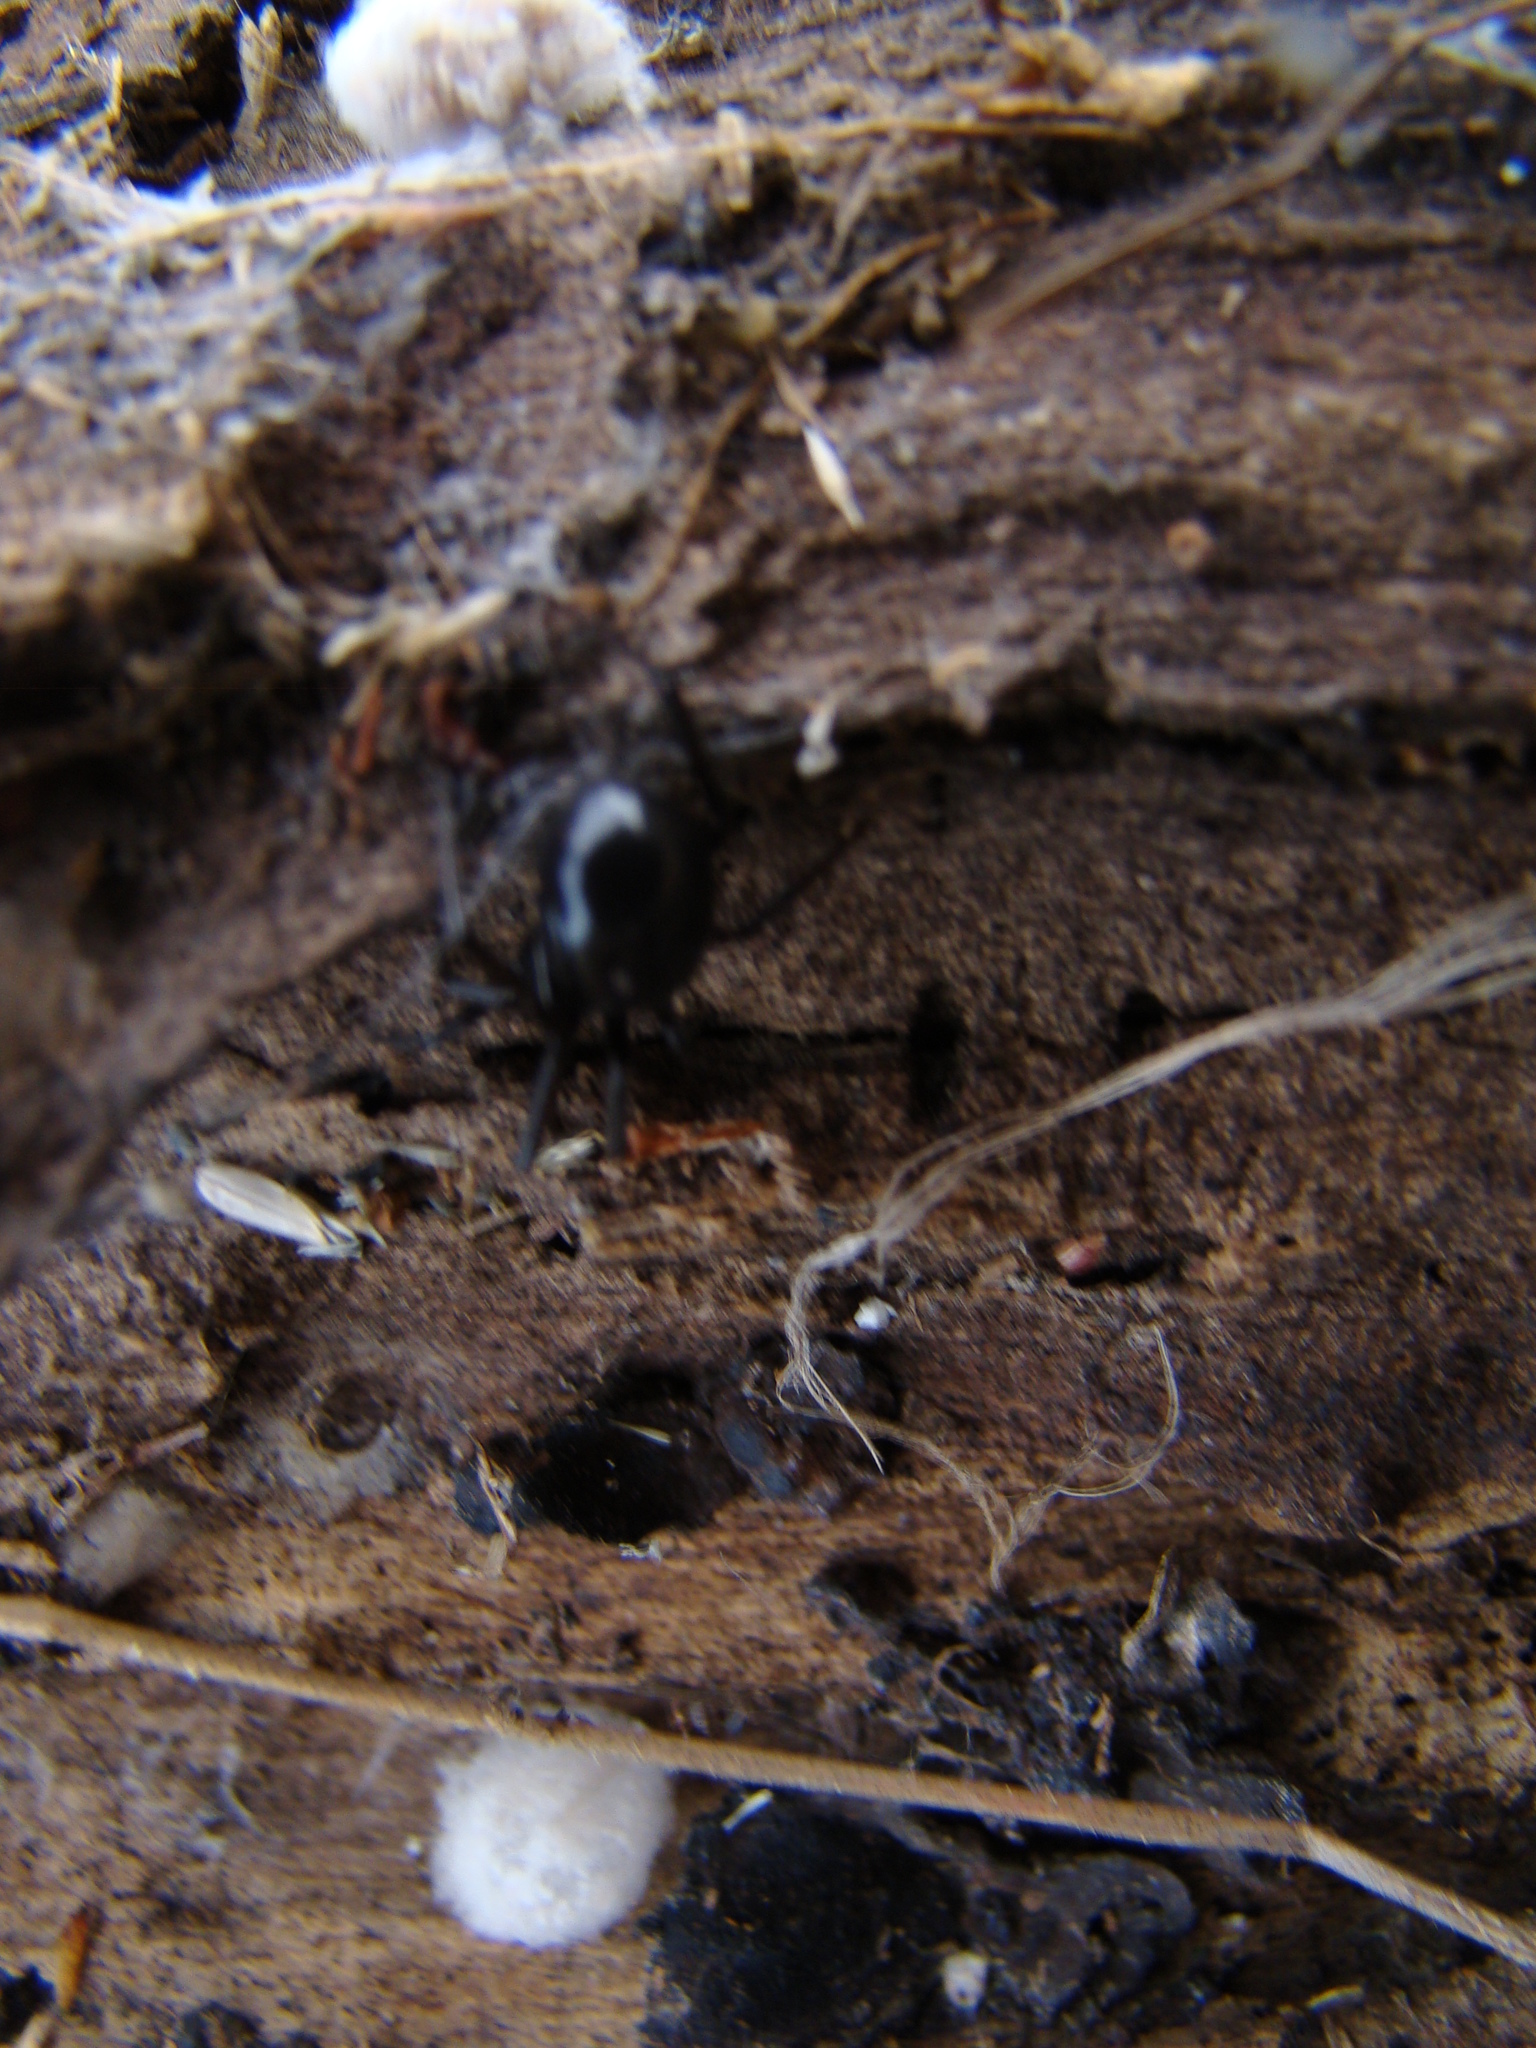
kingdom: Animalia
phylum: Arthropoda
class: Arachnida
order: Araneae
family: Theridiidae
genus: Steatoda
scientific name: Steatoda capensis
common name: Cobweb weaver
